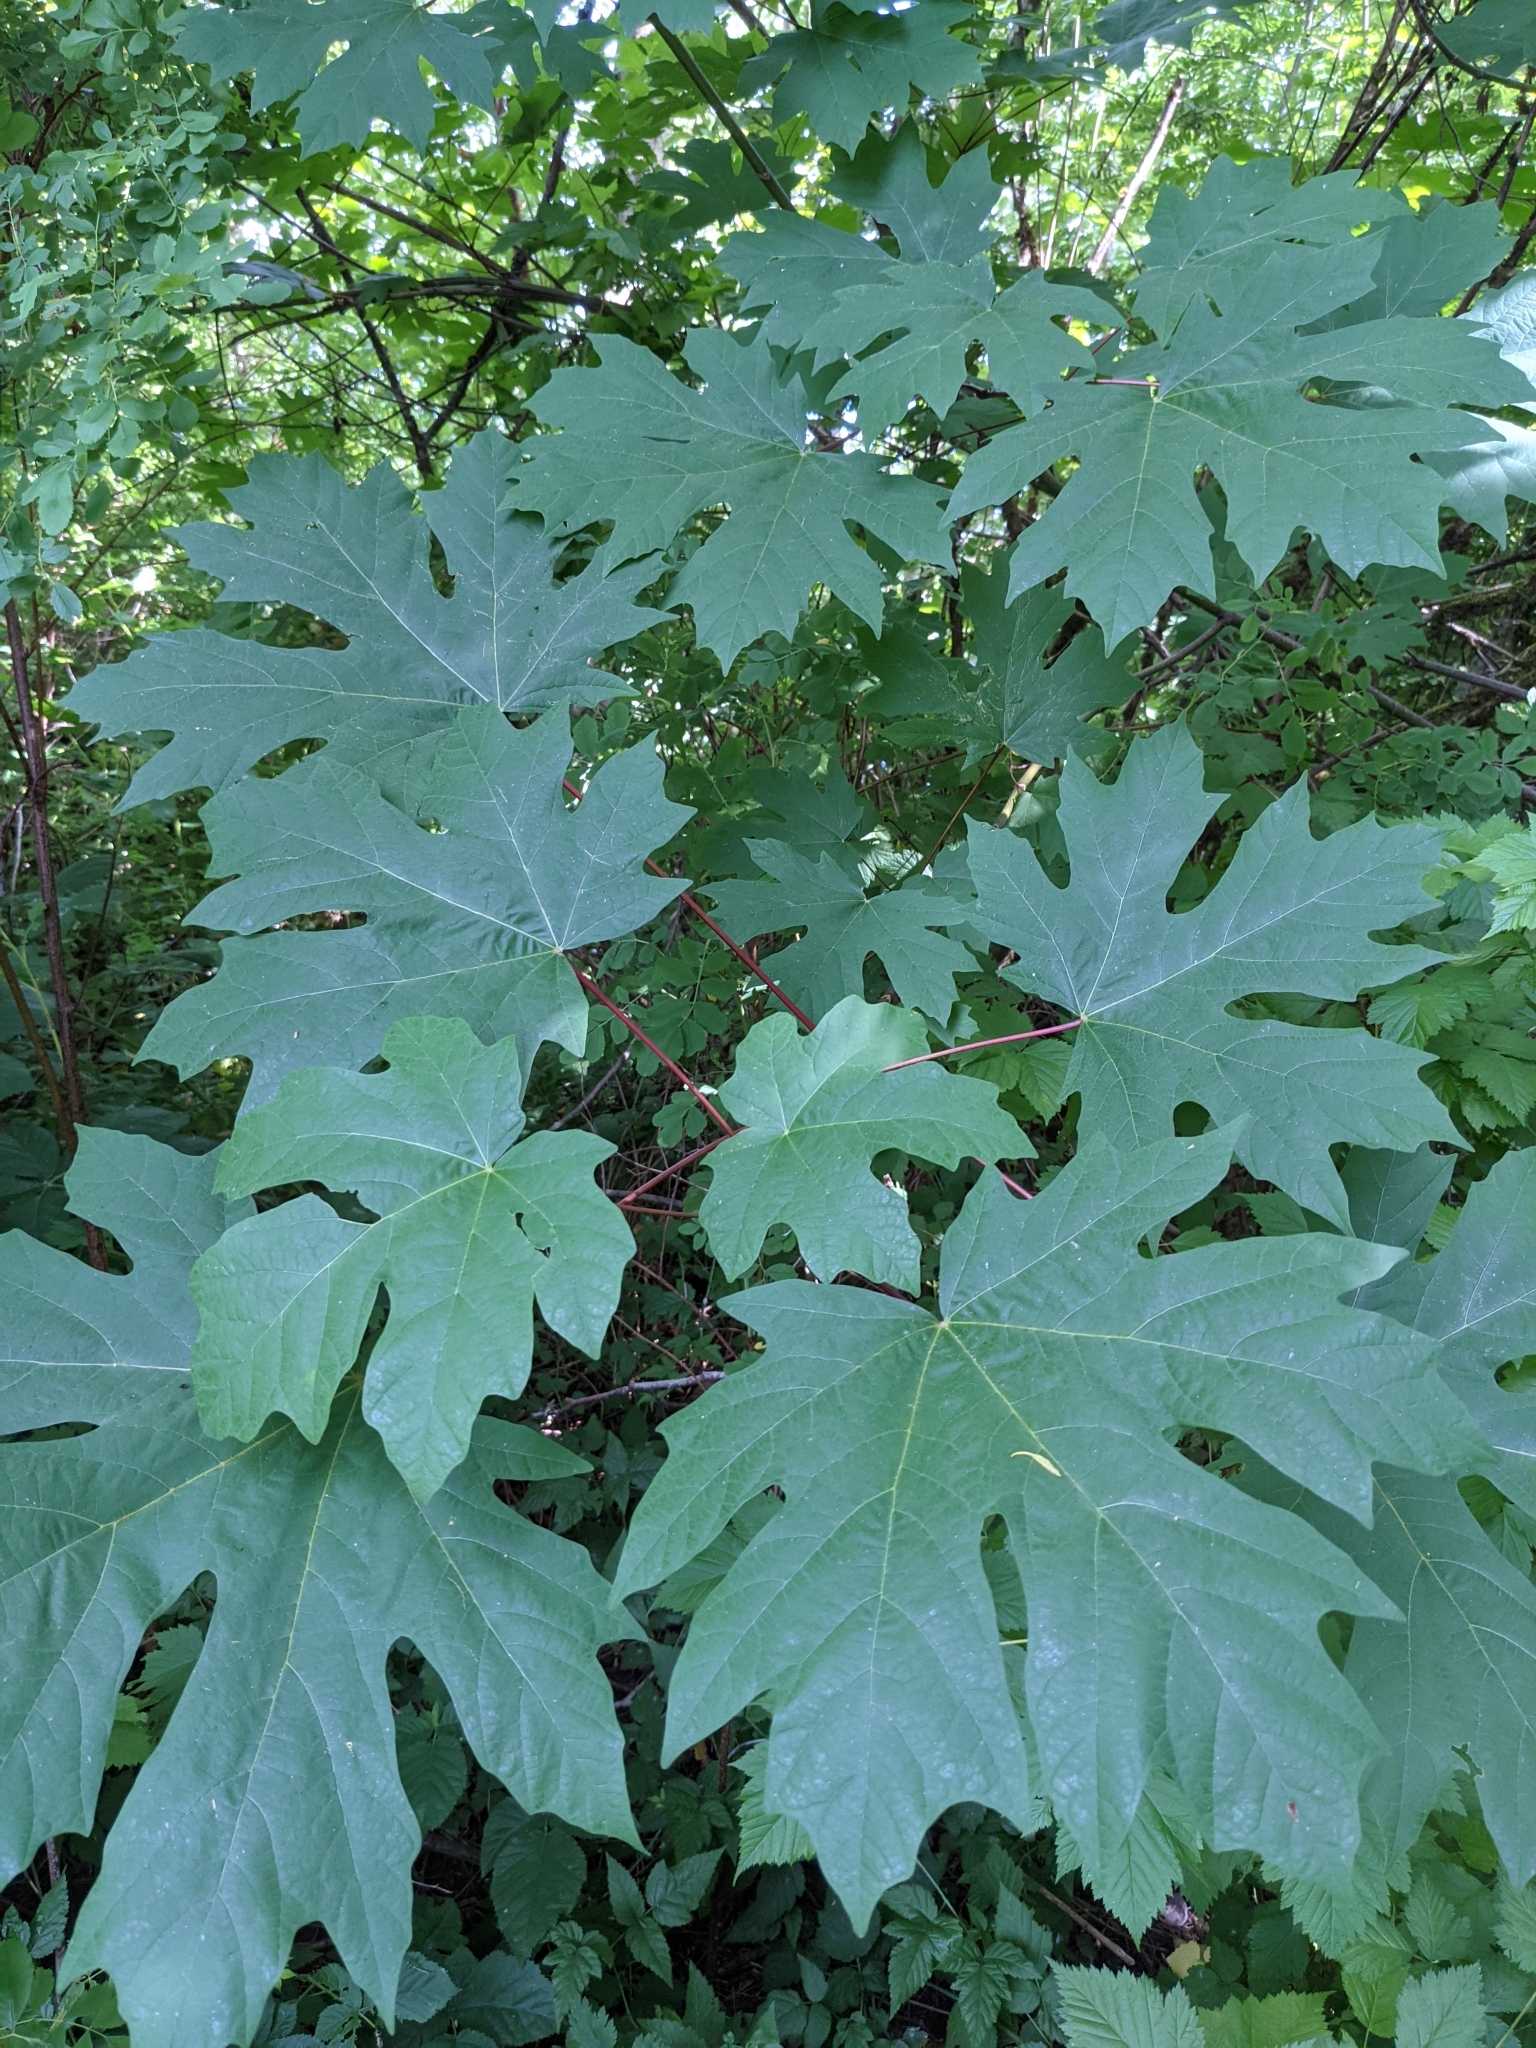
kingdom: Plantae
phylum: Tracheophyta
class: Magnoliopsida
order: Sapindales
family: Sapindaceae
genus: Acer
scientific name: Acer macrophyllum
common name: Oregon maple
